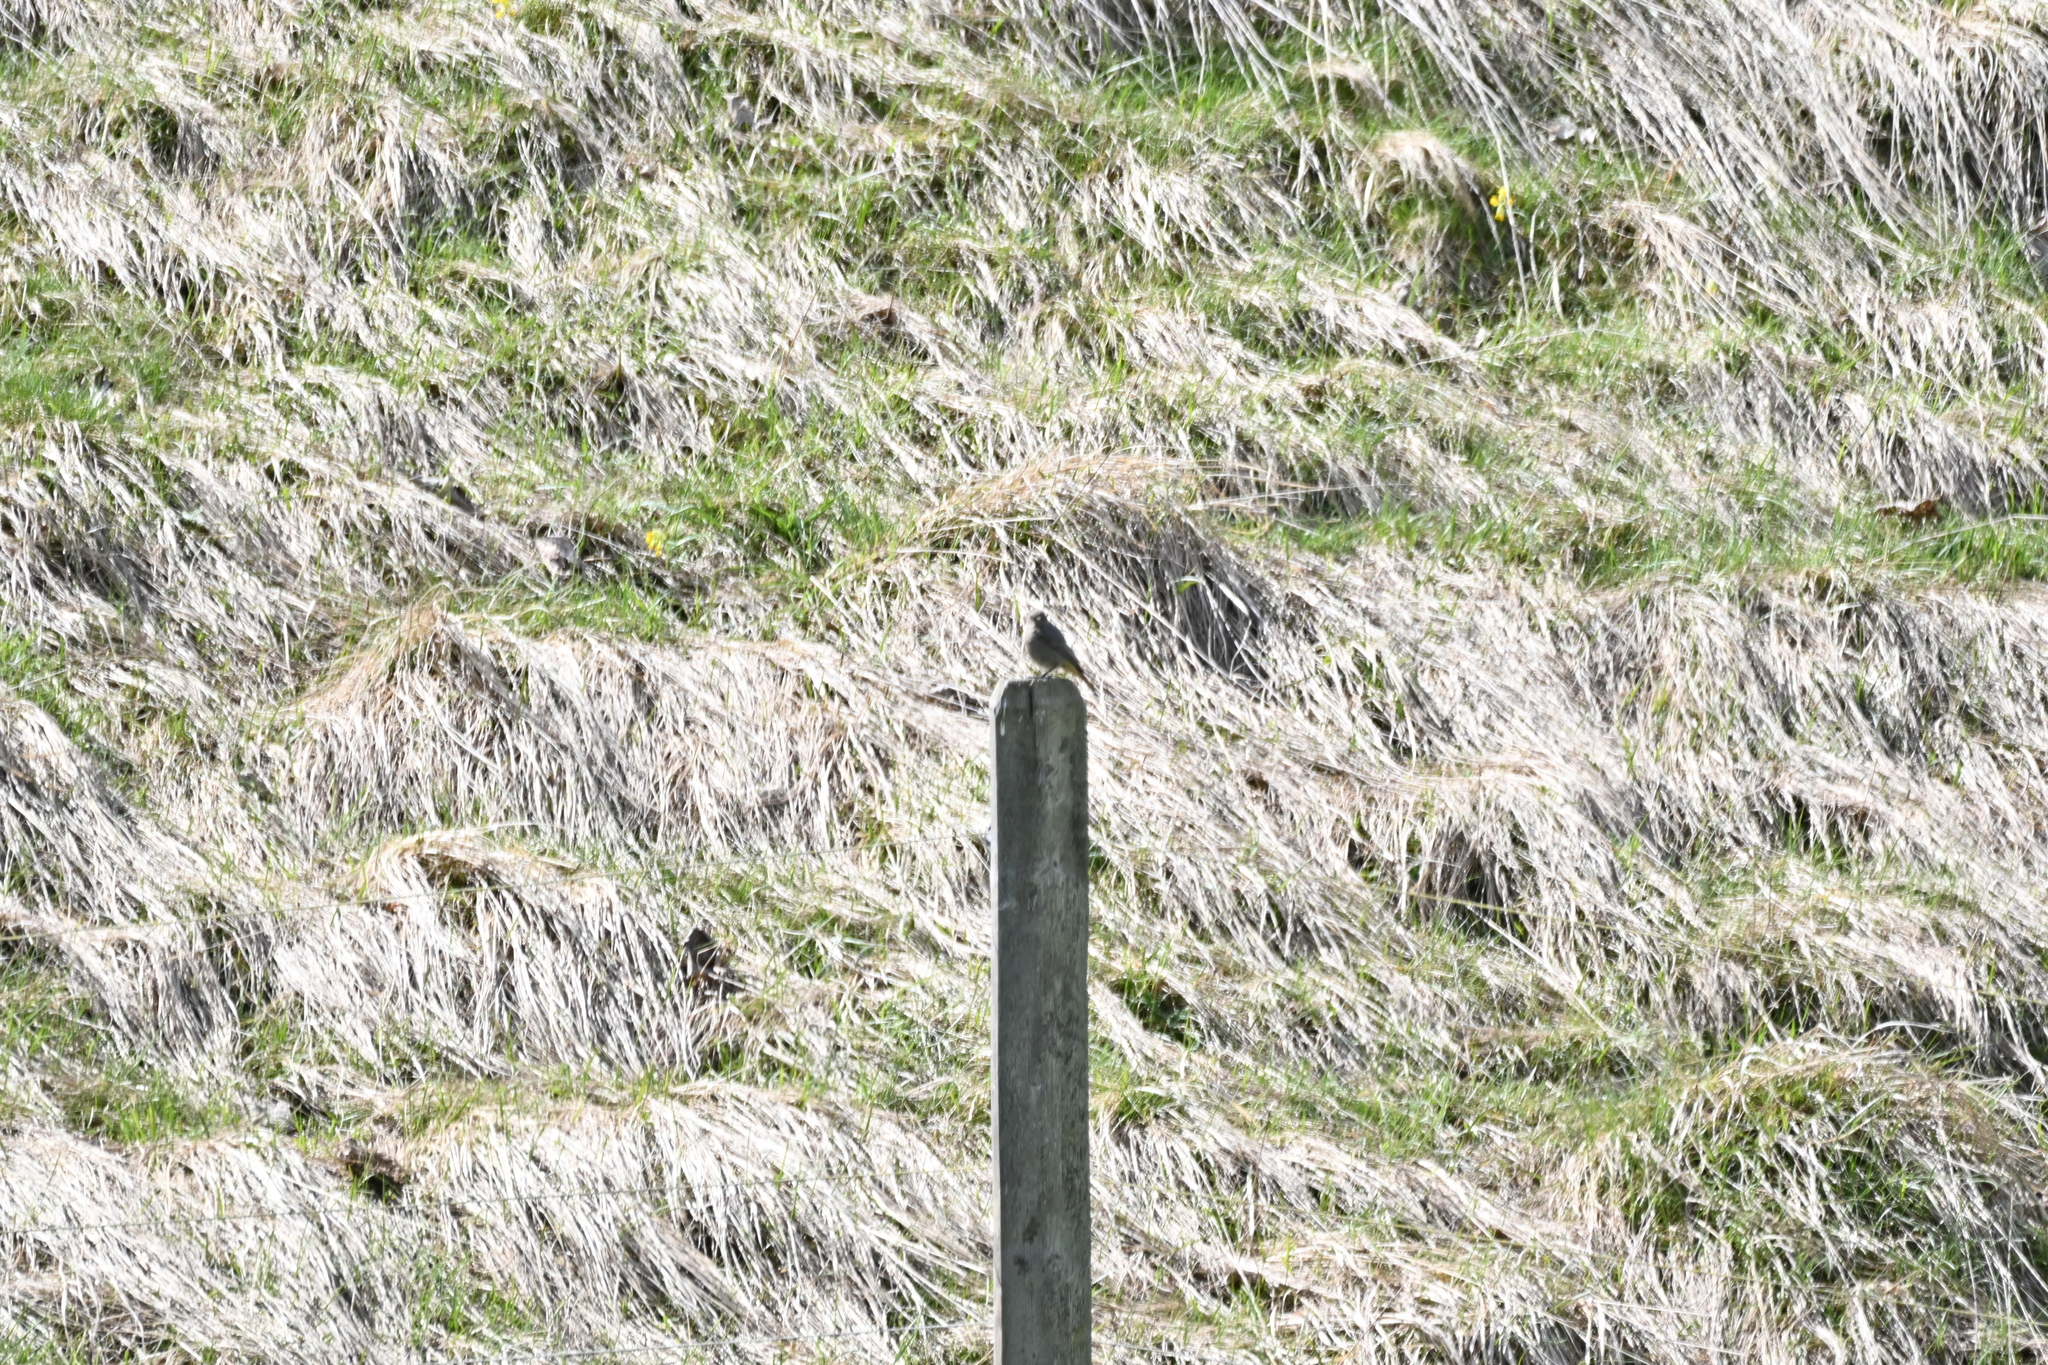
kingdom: Animalia
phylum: Chordata
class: Aves
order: Passeriformes
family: Muscicapidae
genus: Phoenicurus
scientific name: Phoenicurus ochruros
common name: Black redstart
